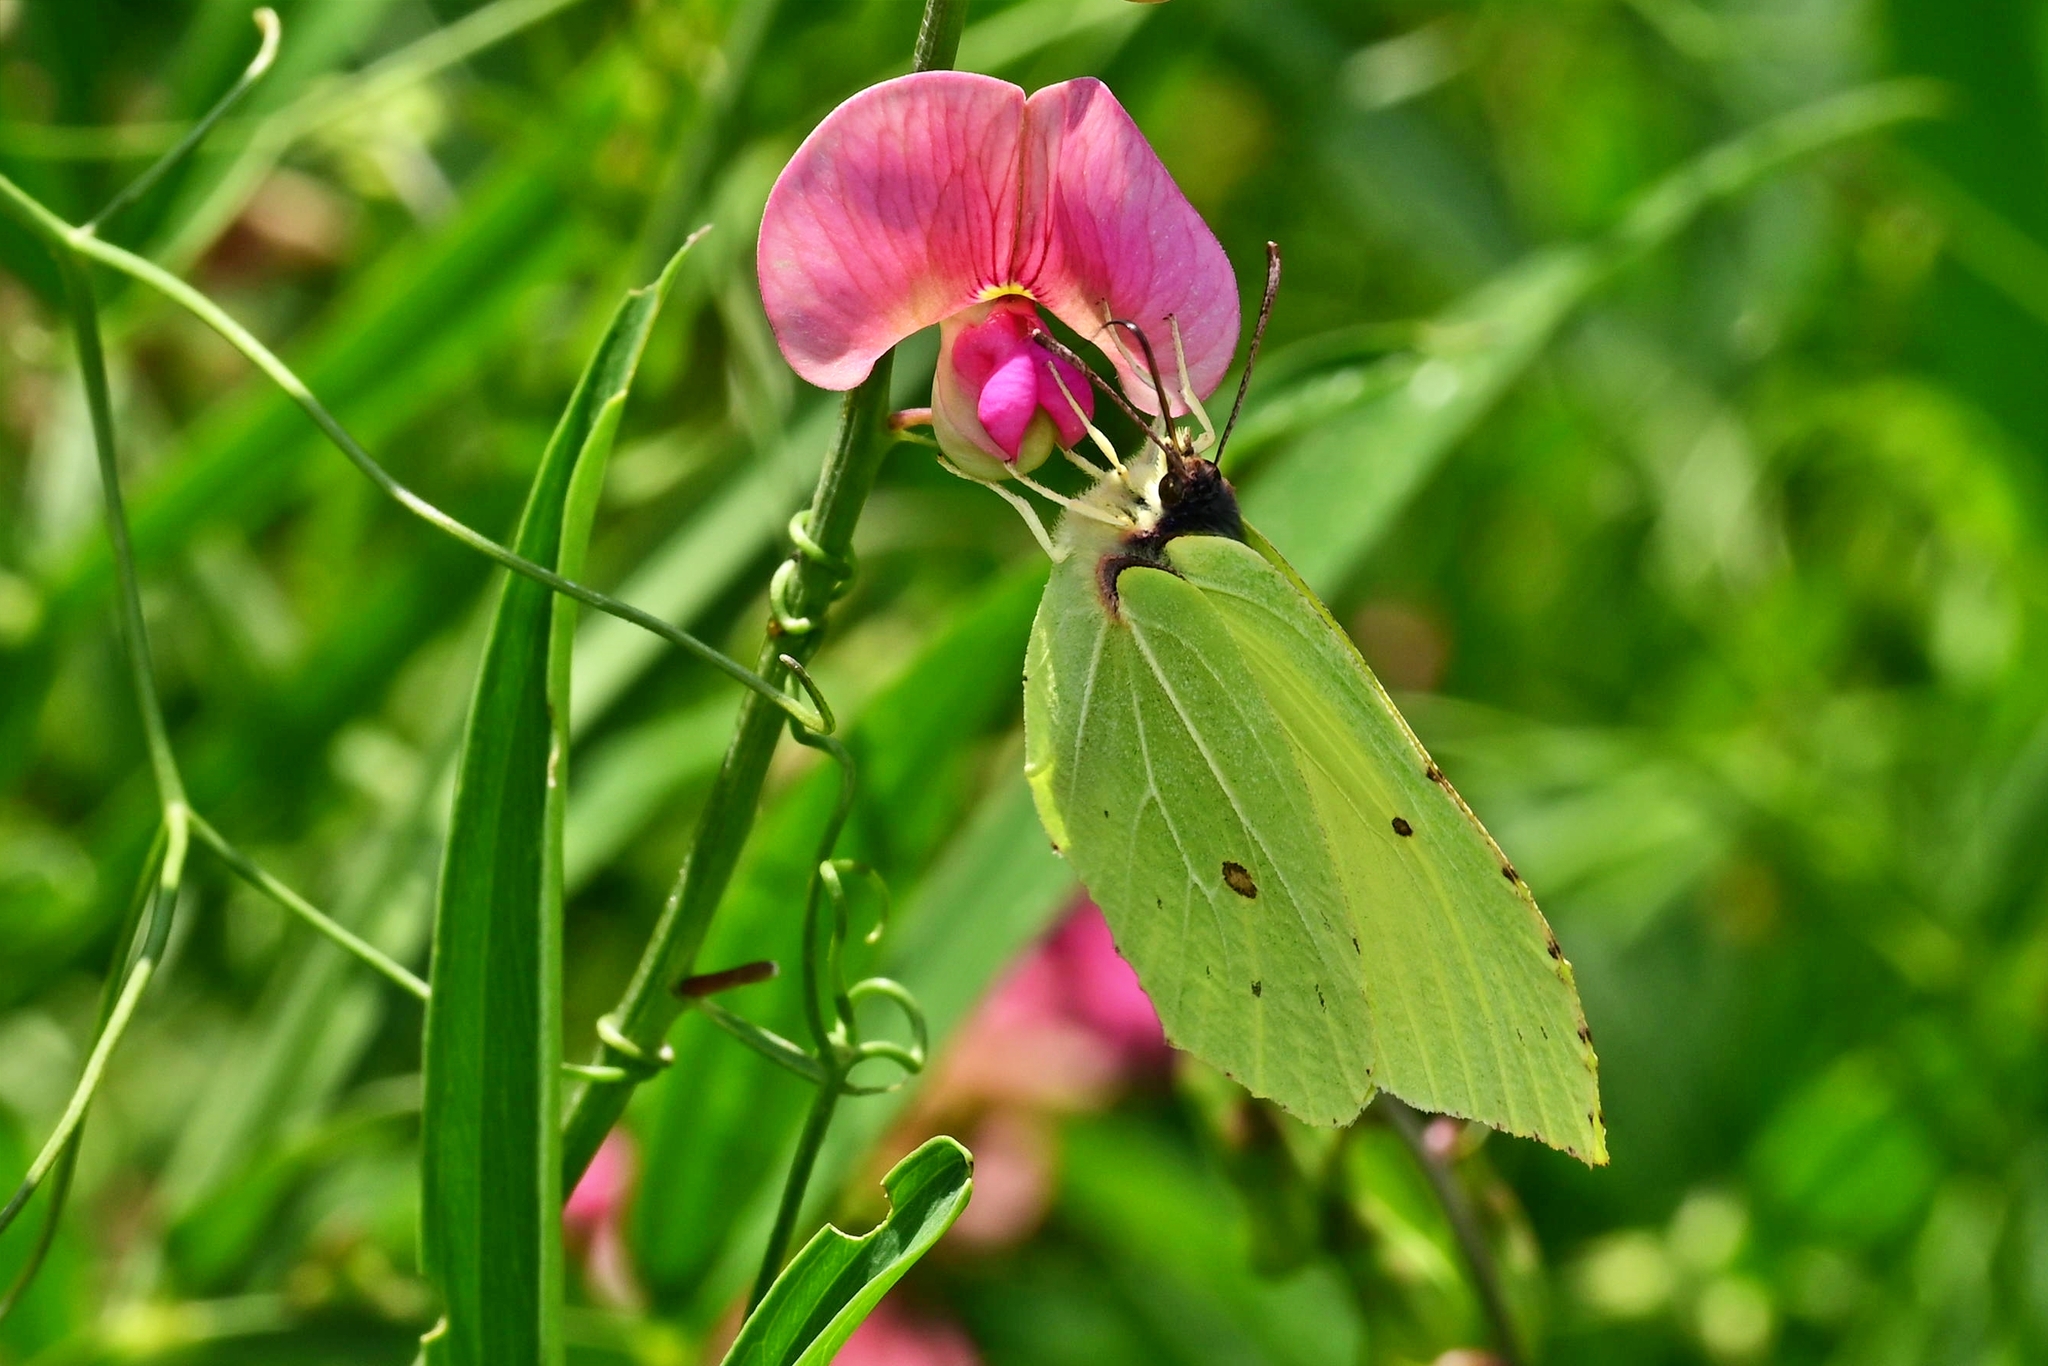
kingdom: Animalia
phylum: Arthropoda
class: Insecta
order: Lepidoptera
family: Pieridae
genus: Gonepteryx
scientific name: Gonepteryx rhamni
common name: Brimstone
